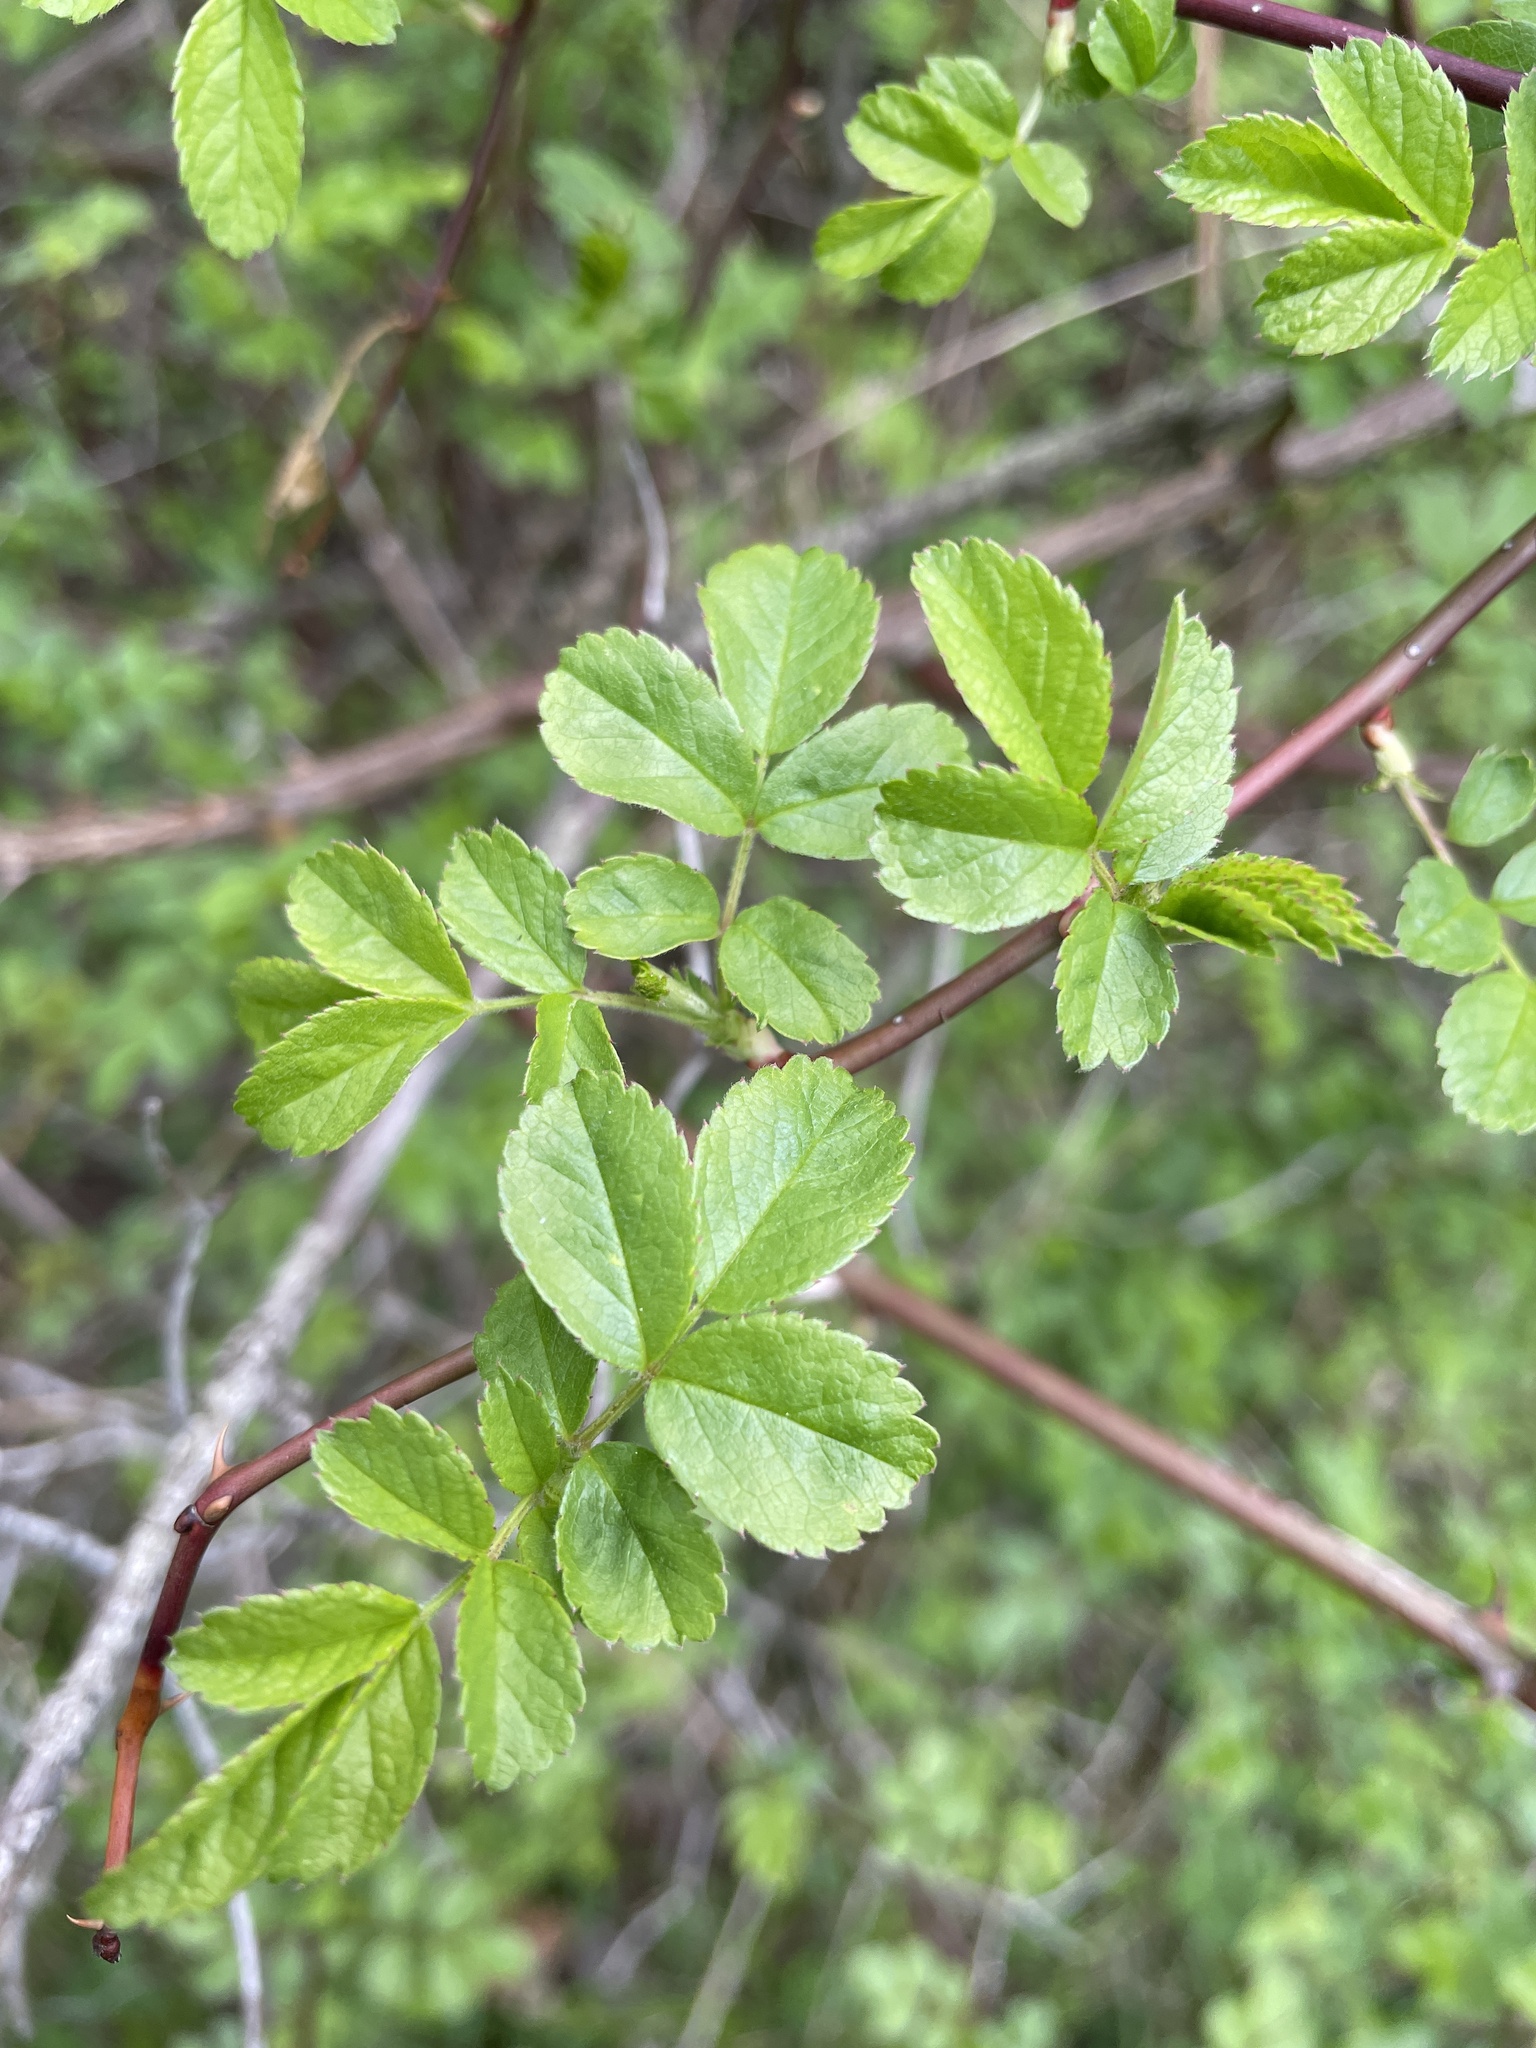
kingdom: Plantae
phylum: Tracheophyta
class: Magnoliopsida
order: Rosales
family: Rosaceae
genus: Rosa
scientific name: Rosa
